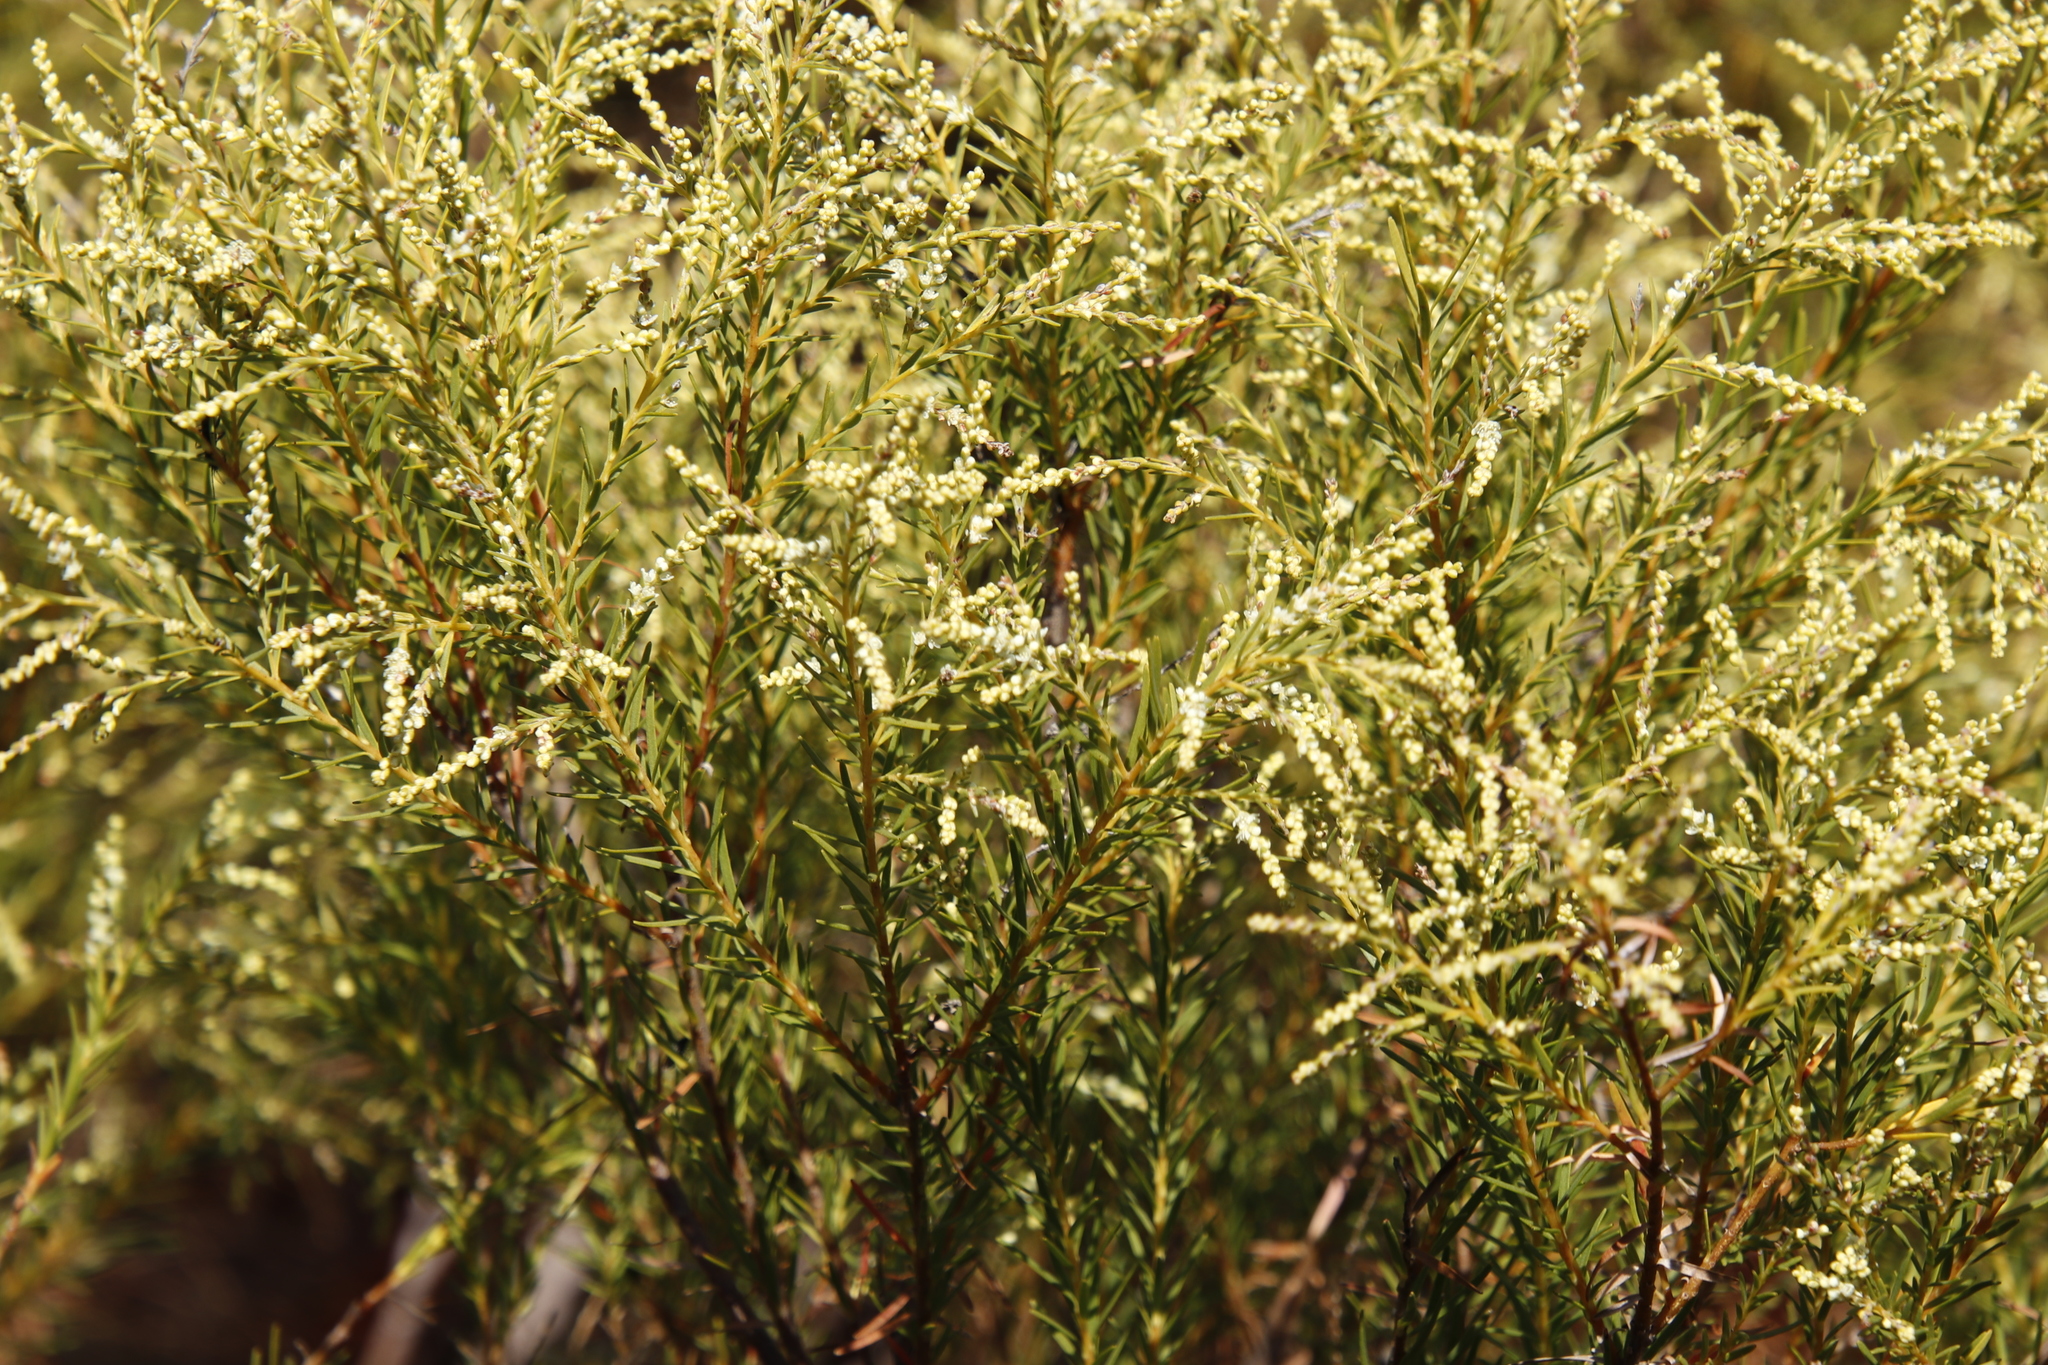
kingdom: Plantae
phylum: Tracheophyta
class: Magnoliopsida
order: Bruniales
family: Bruniaceae
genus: Brunia
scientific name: Brunia africana
